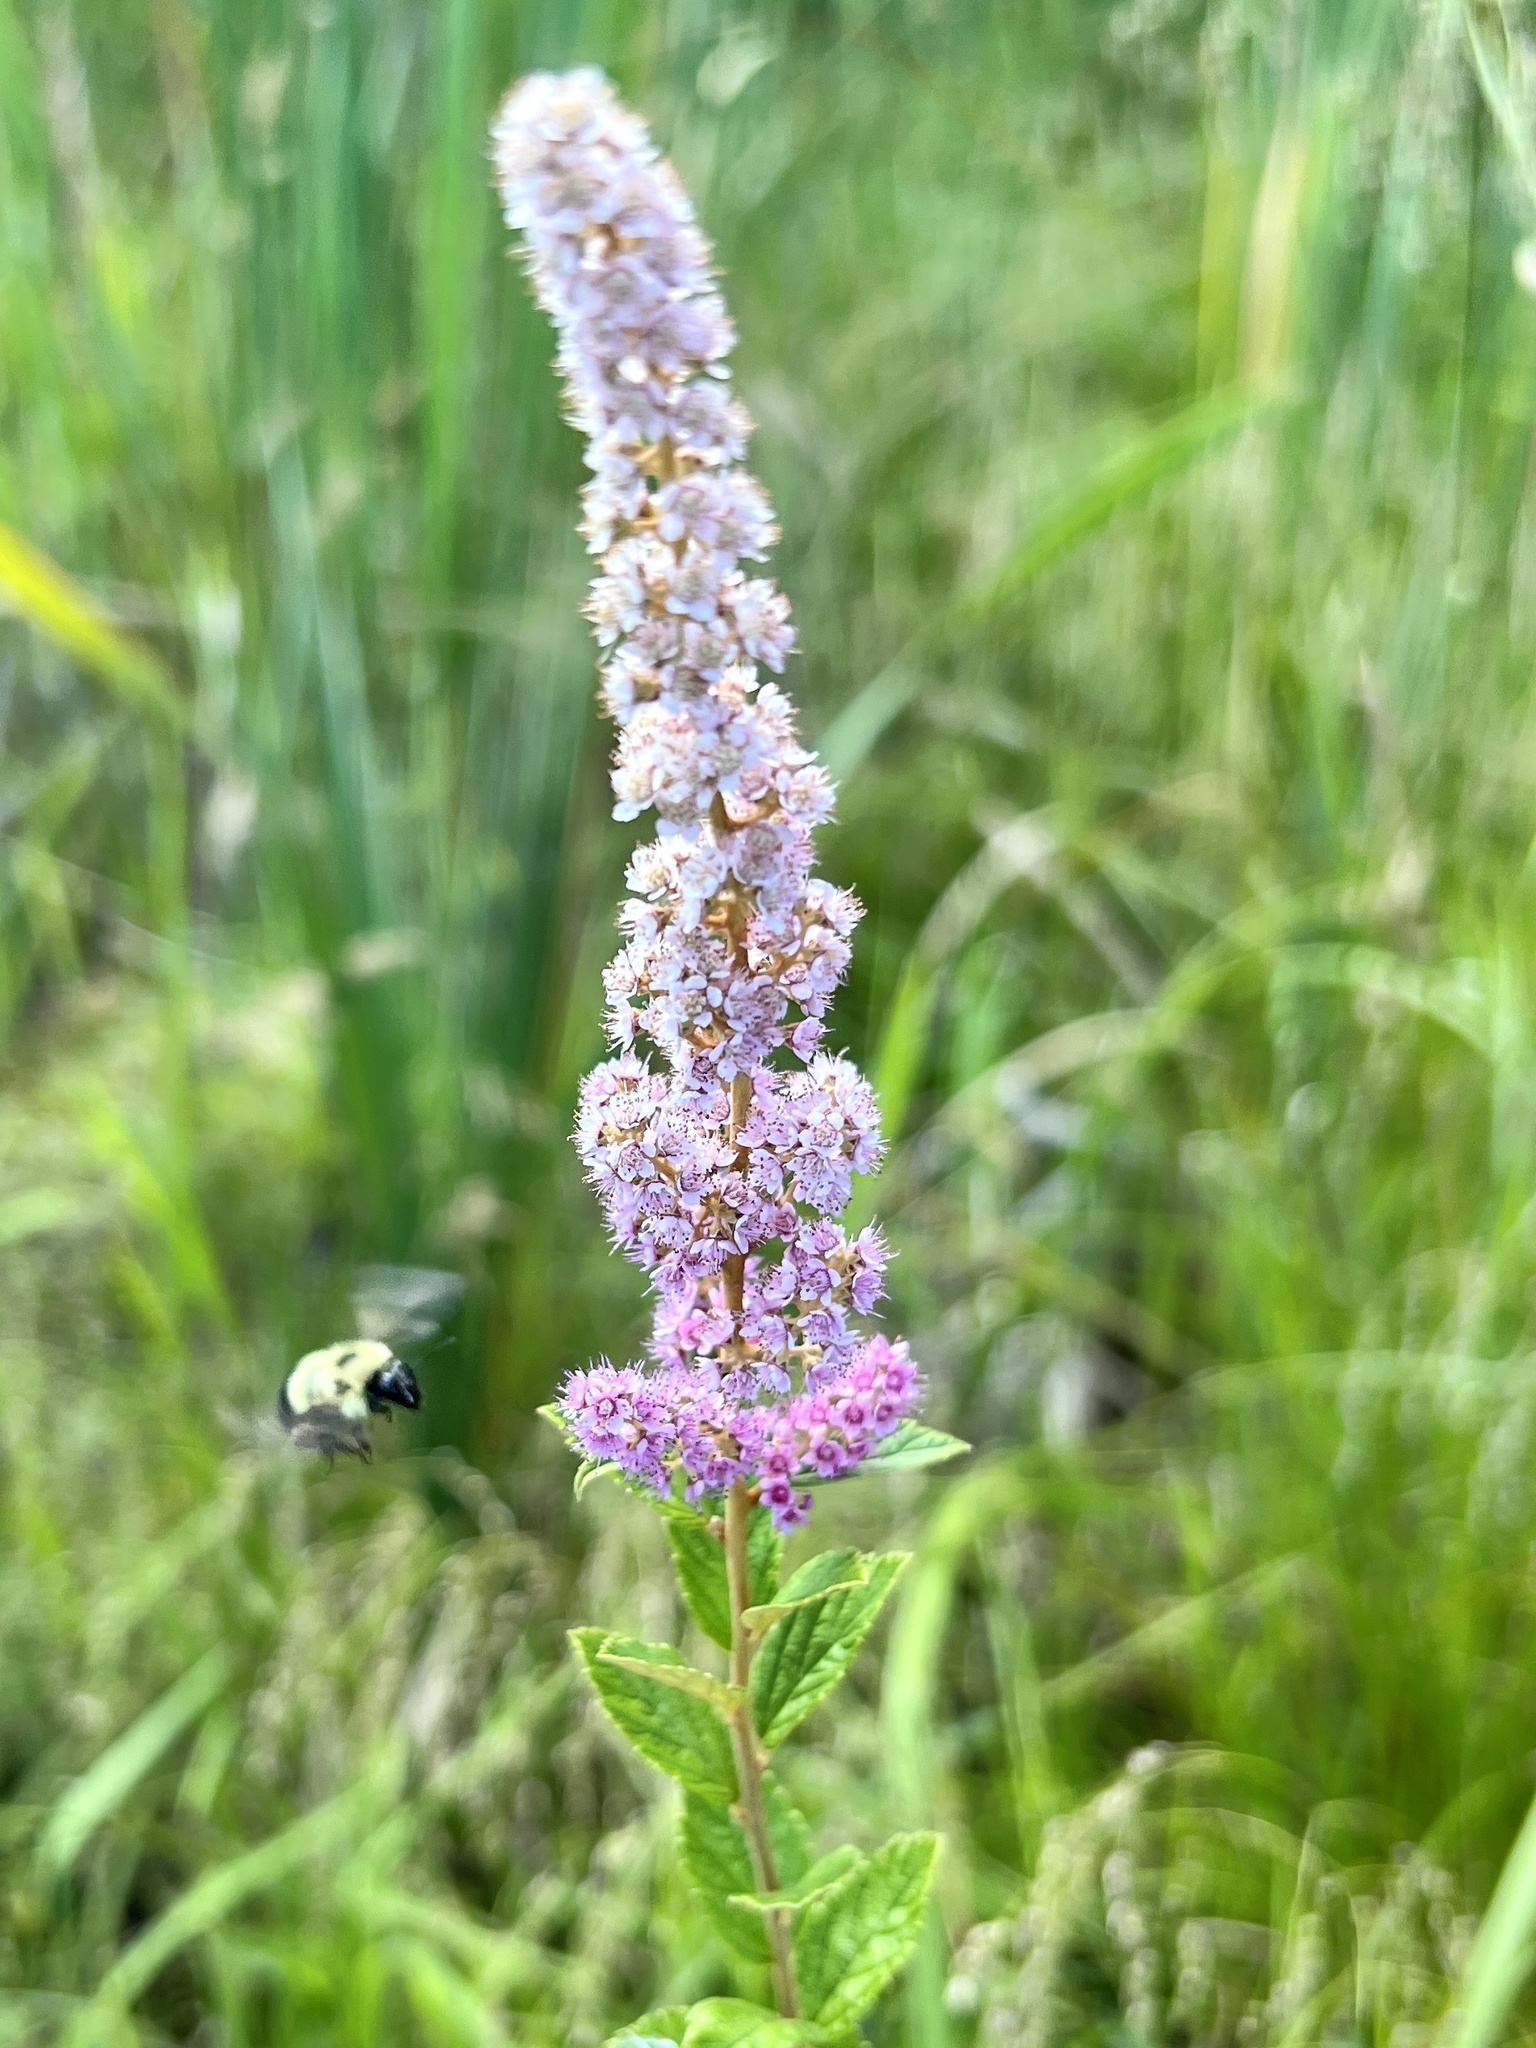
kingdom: Plantae
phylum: Tracheophyta
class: Magnoliopsida
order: Rosales
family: Rosaceae
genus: Spiraea
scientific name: Spiraea tomentosa
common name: Hardhack
